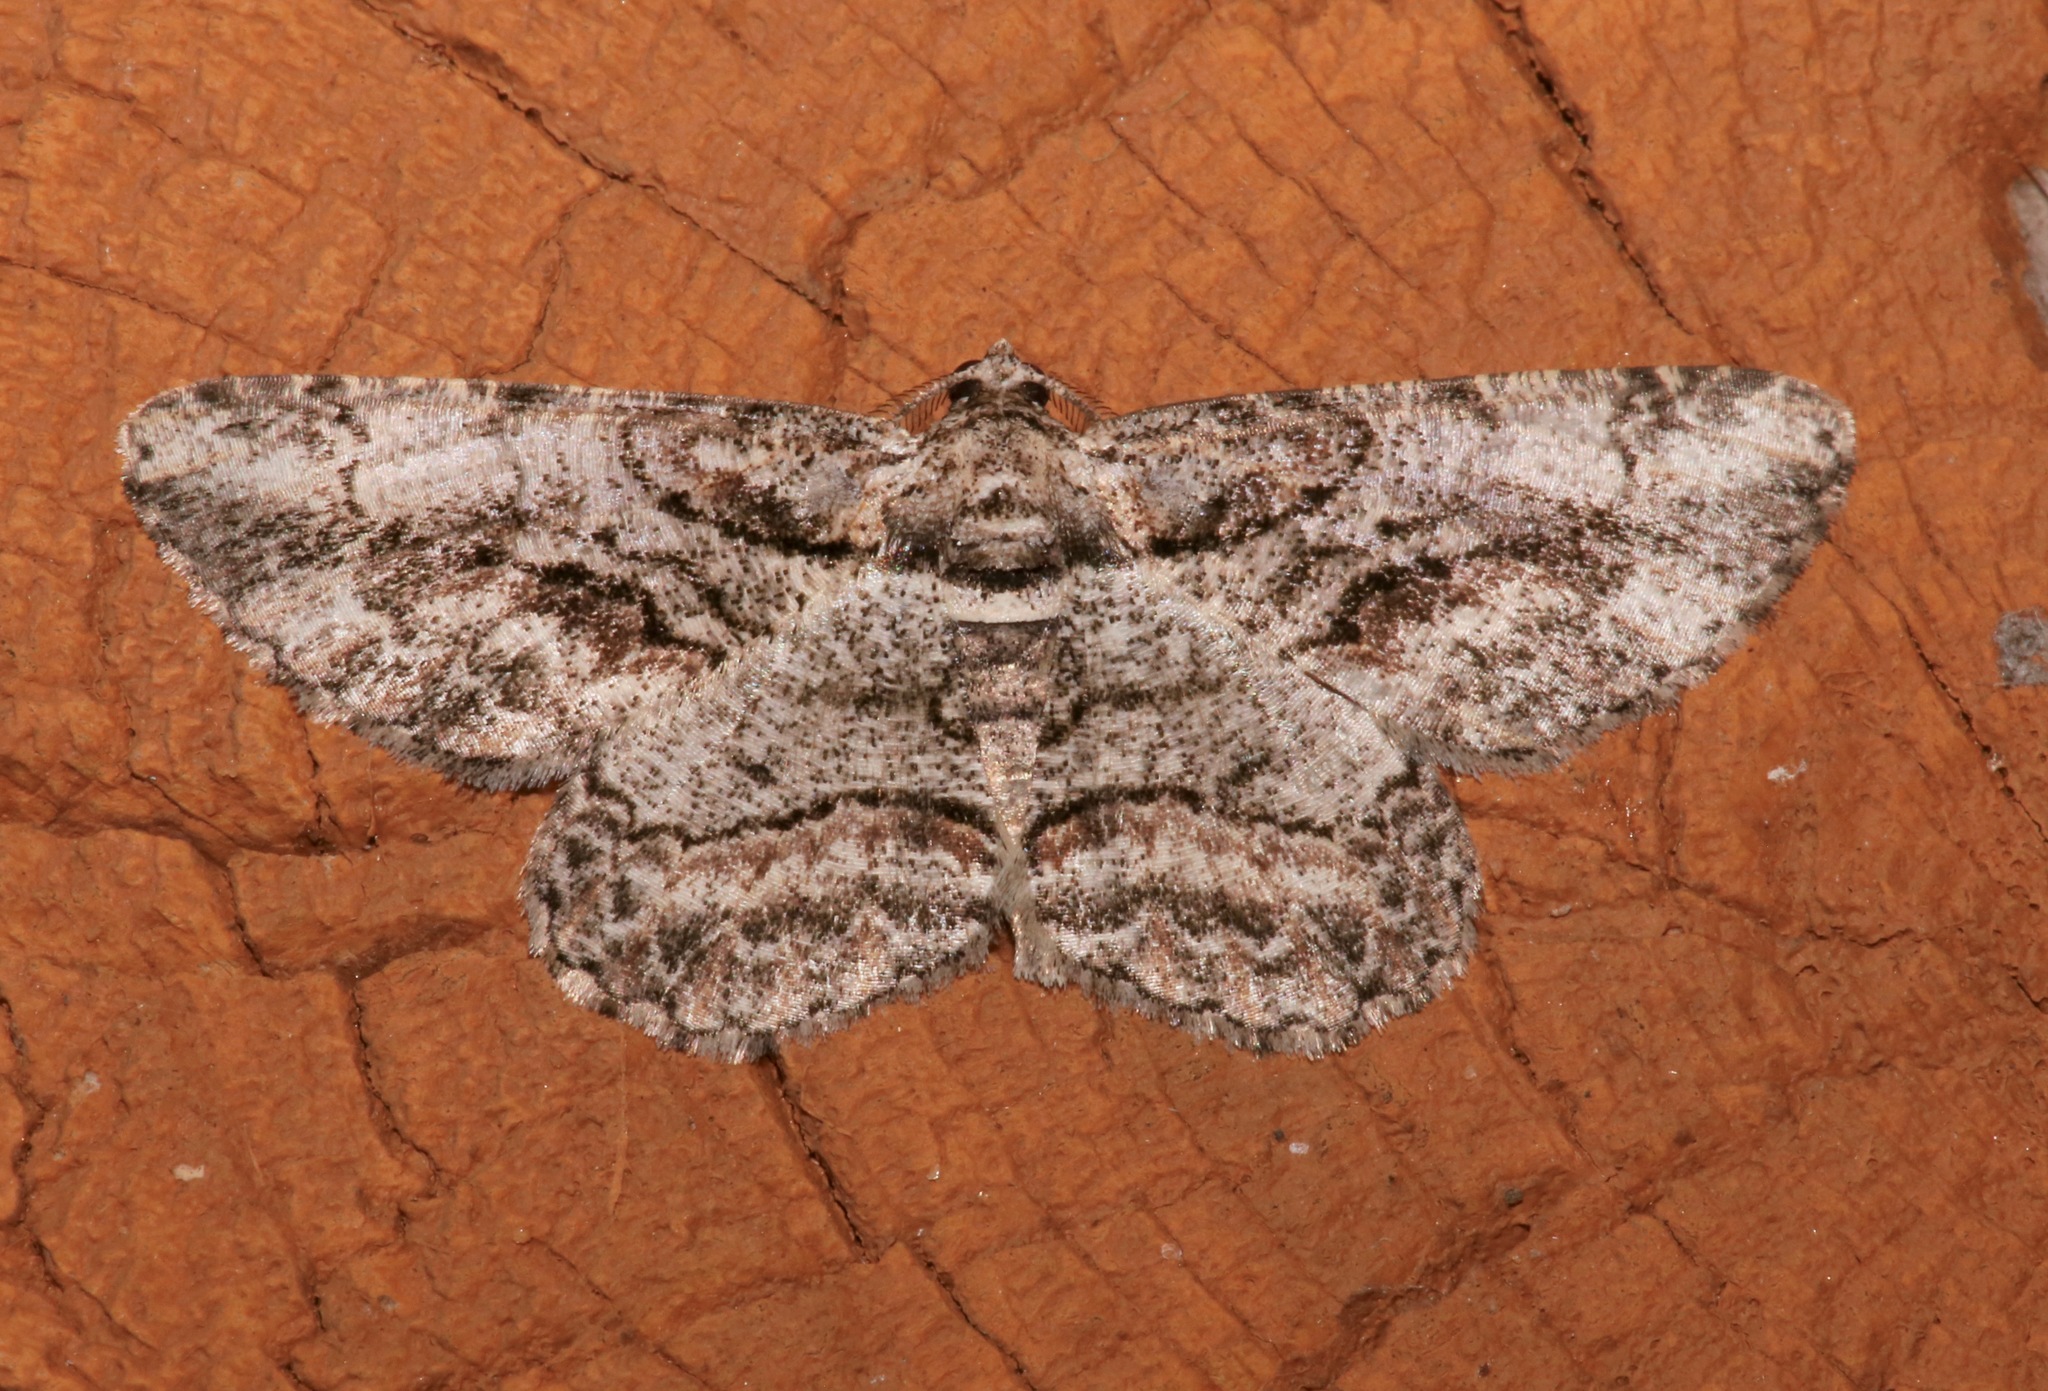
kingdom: Animalia
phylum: Arthropoda
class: Insecta
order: Lepidoptera
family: Geometridae
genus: Anavitrinella
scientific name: Anavitrinella pampinaria
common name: Common gray
